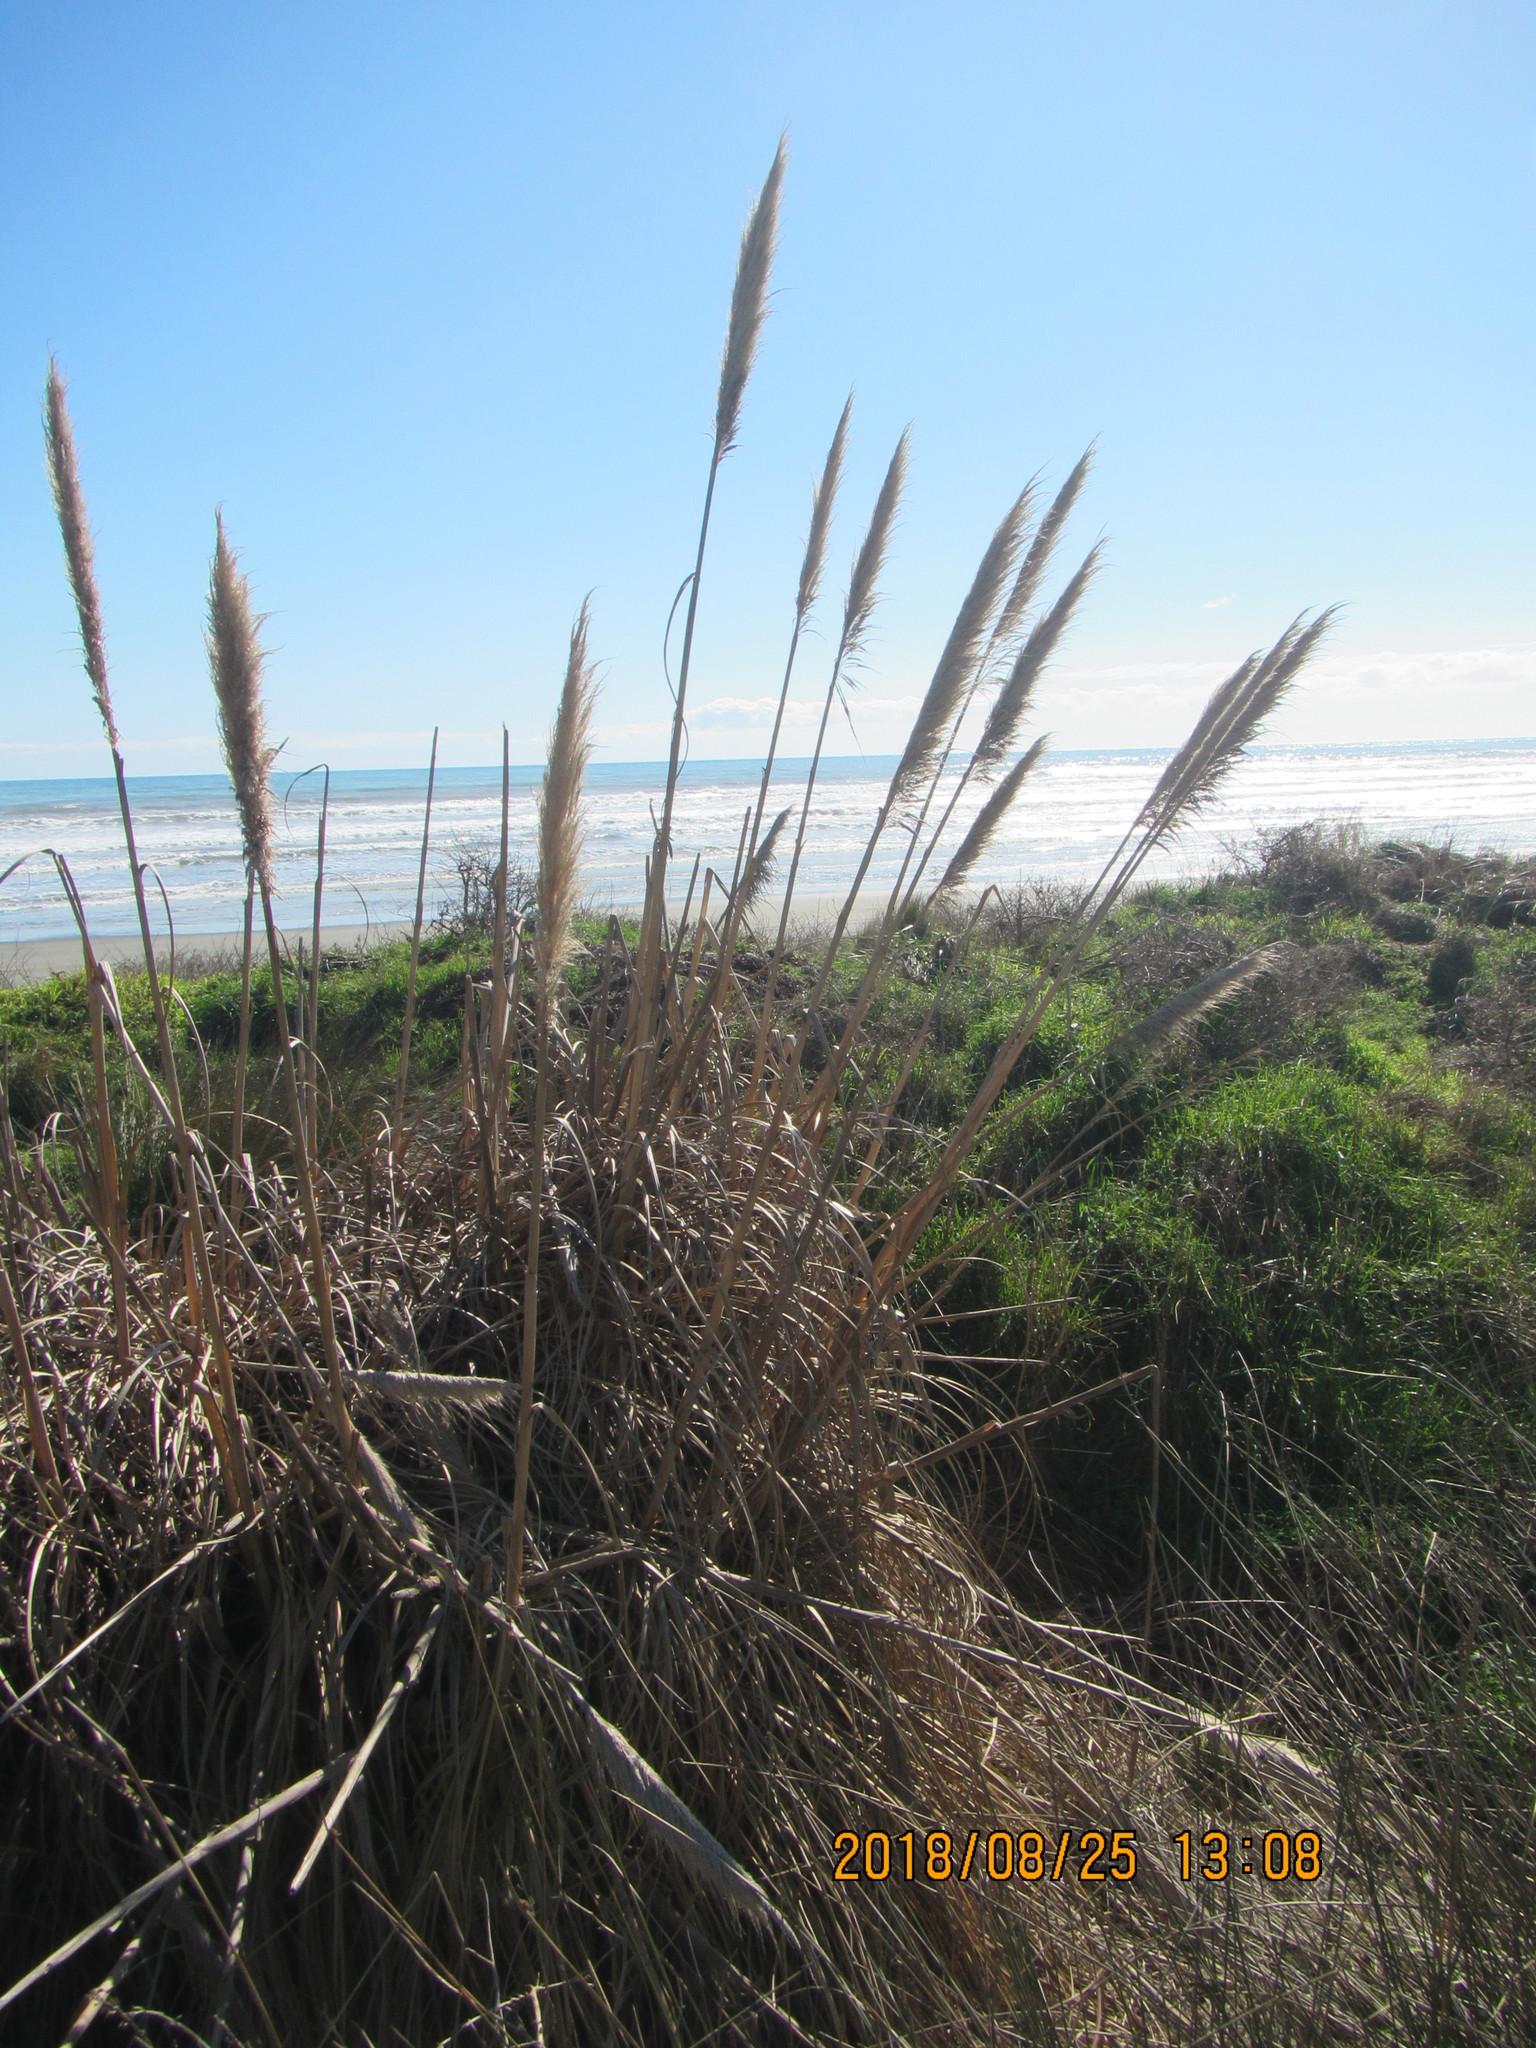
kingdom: Plantae
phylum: Tracheophyta
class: Liliopsida
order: Poales
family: Poaceae
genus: Cortaderia
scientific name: Cortaderia selloana
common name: Uruguayan pampas grass
